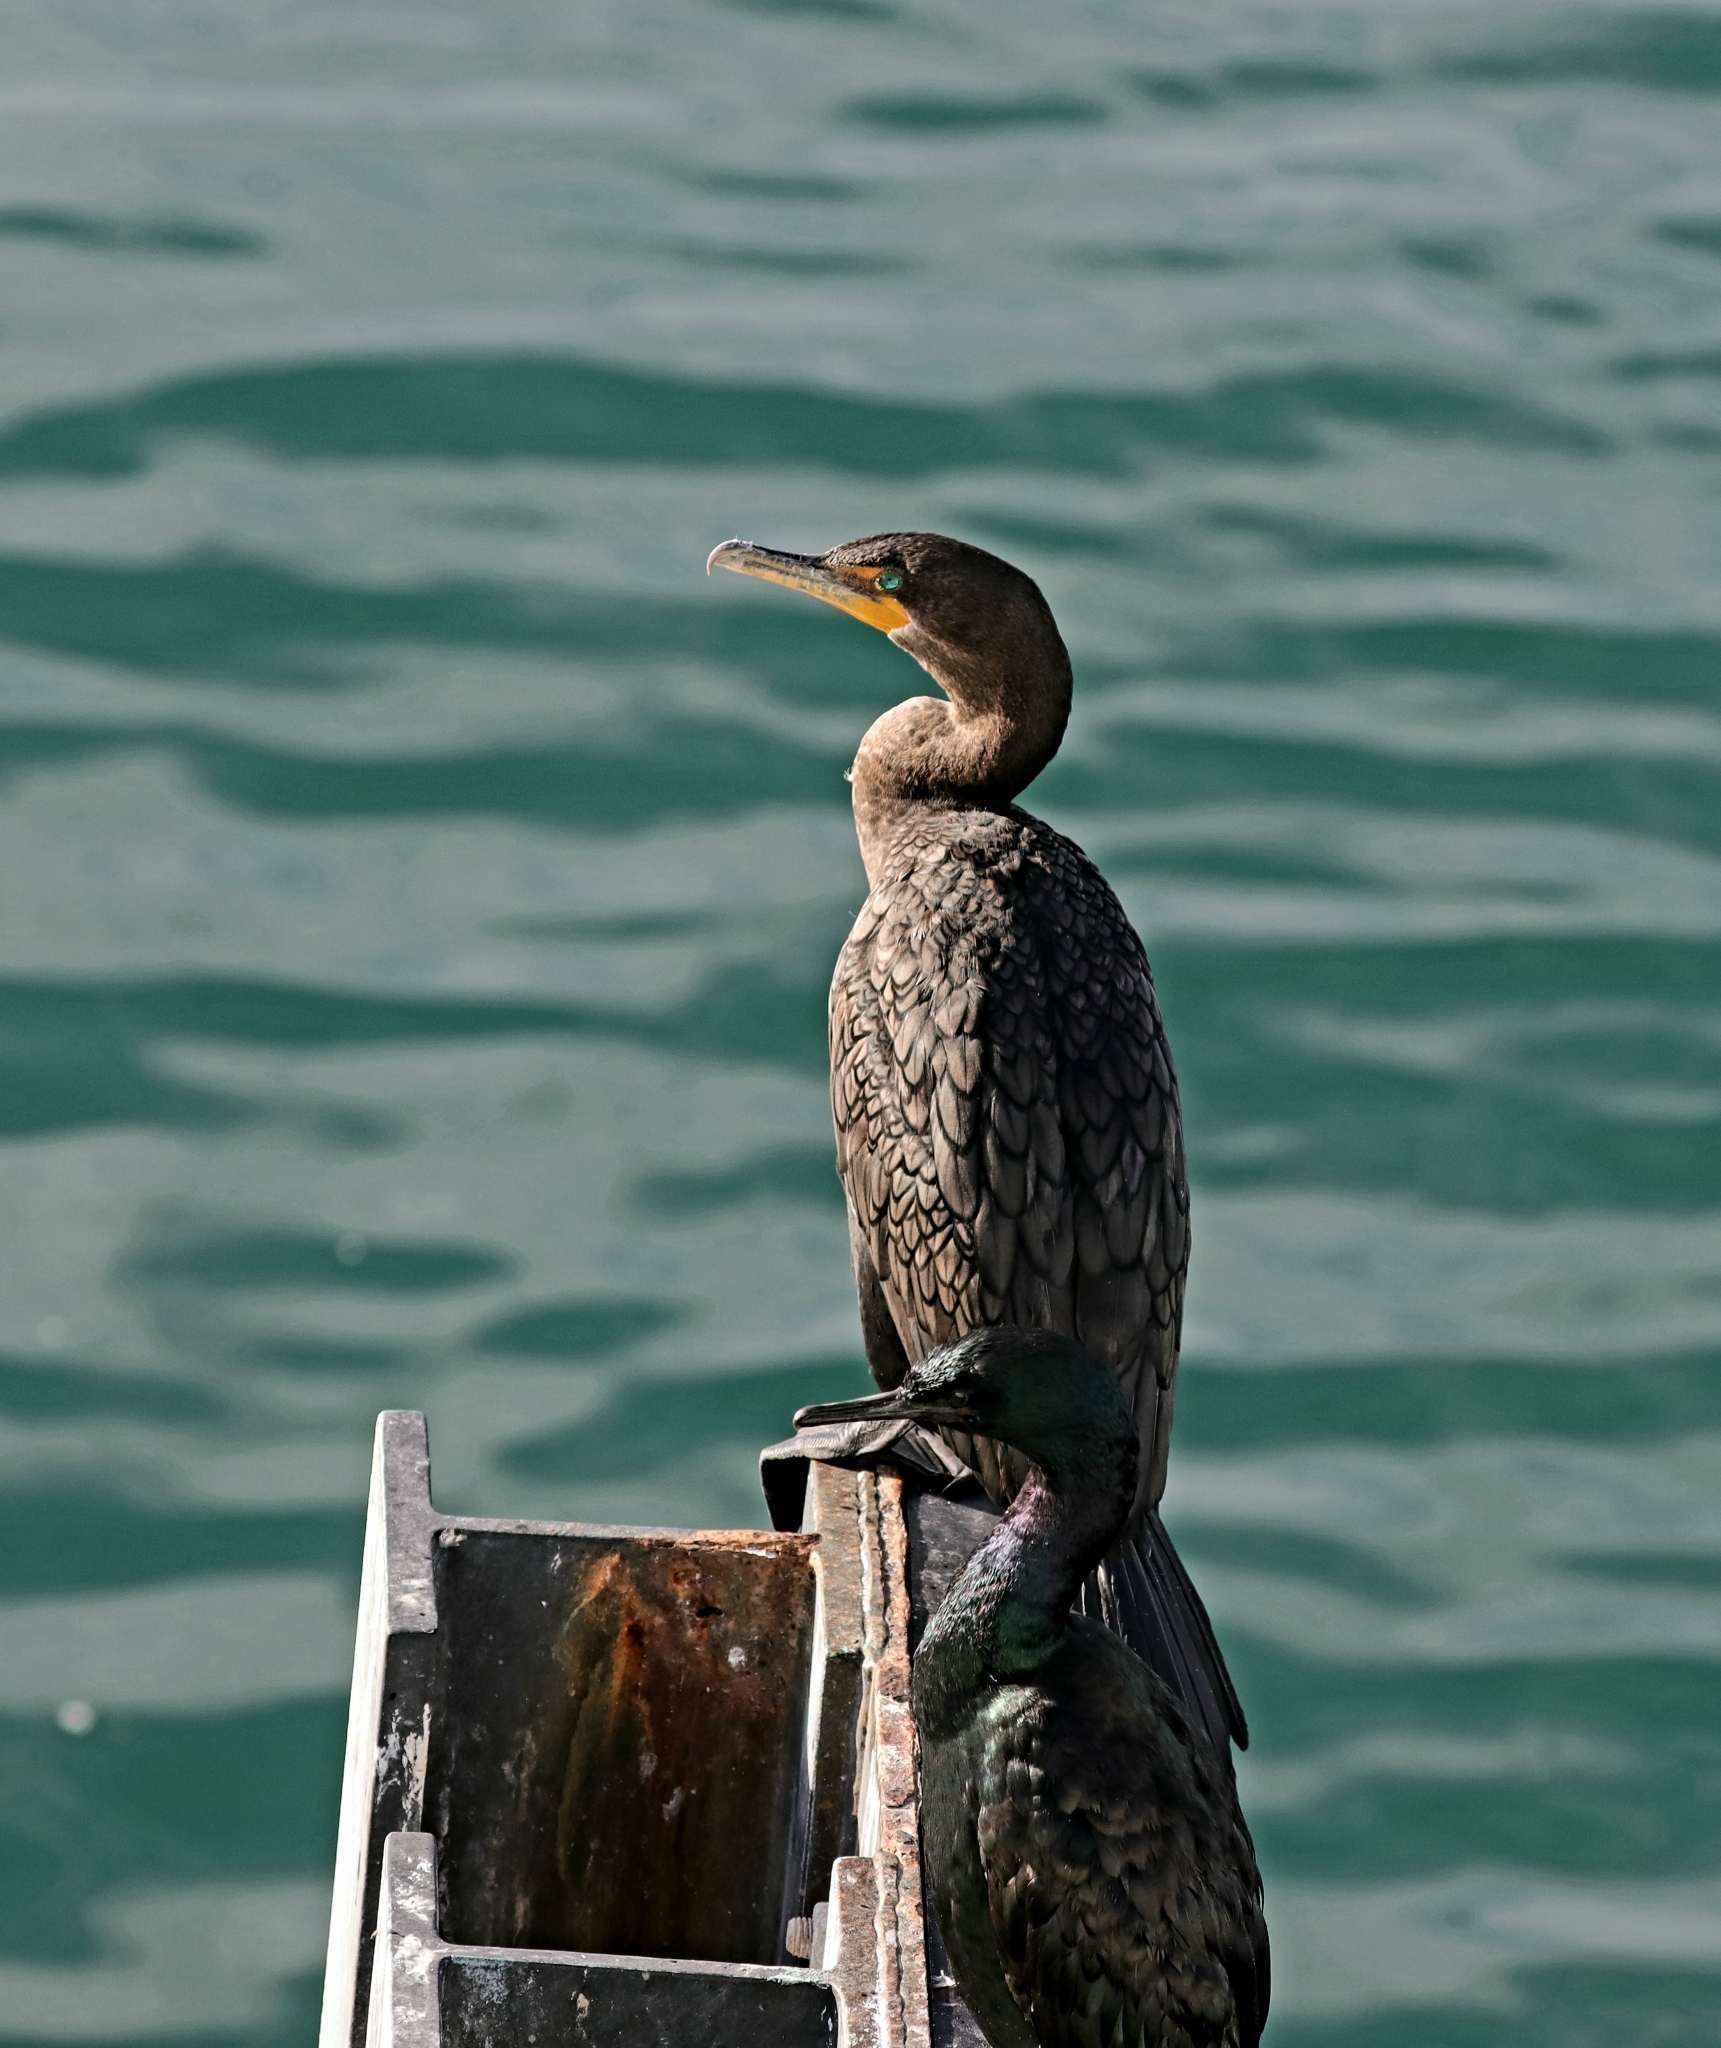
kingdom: Animalia
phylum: Chordata
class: Aves
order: Suliformes
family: Phalacrocoracidae
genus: Phalacrocorax
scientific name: Phalacrocorax auritus
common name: Double-crested cormorant
